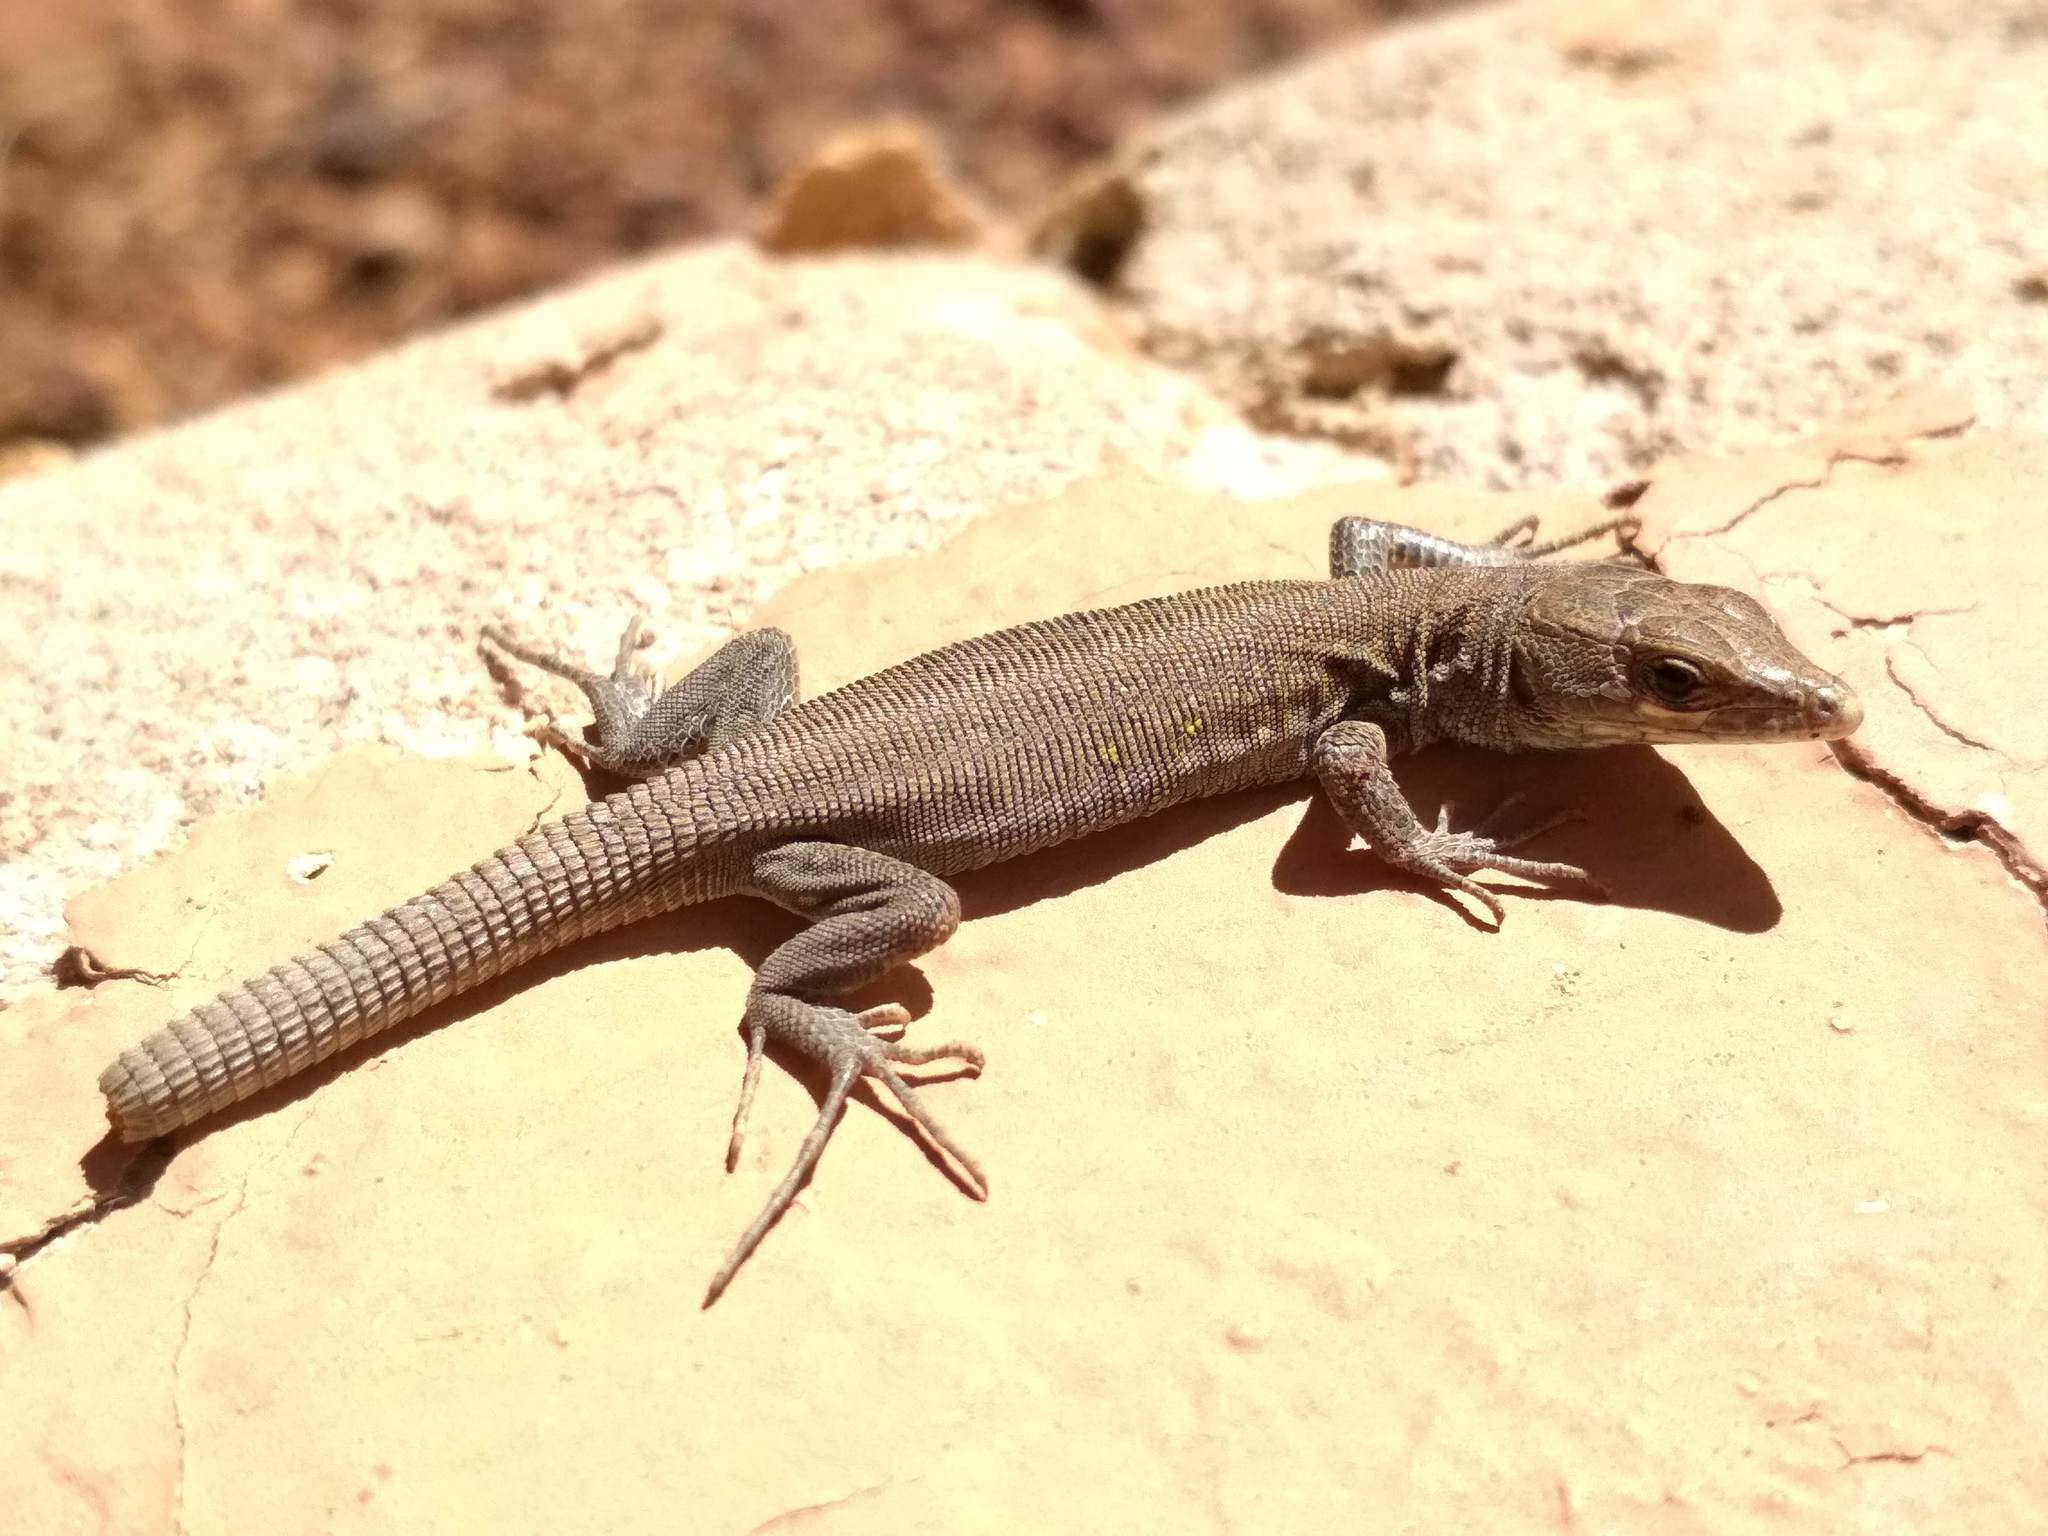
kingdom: Animalia
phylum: Chordata
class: Squamata
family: Lacertidae
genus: Gallotia
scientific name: Gallotia atlantica
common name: Atlantic lizard
